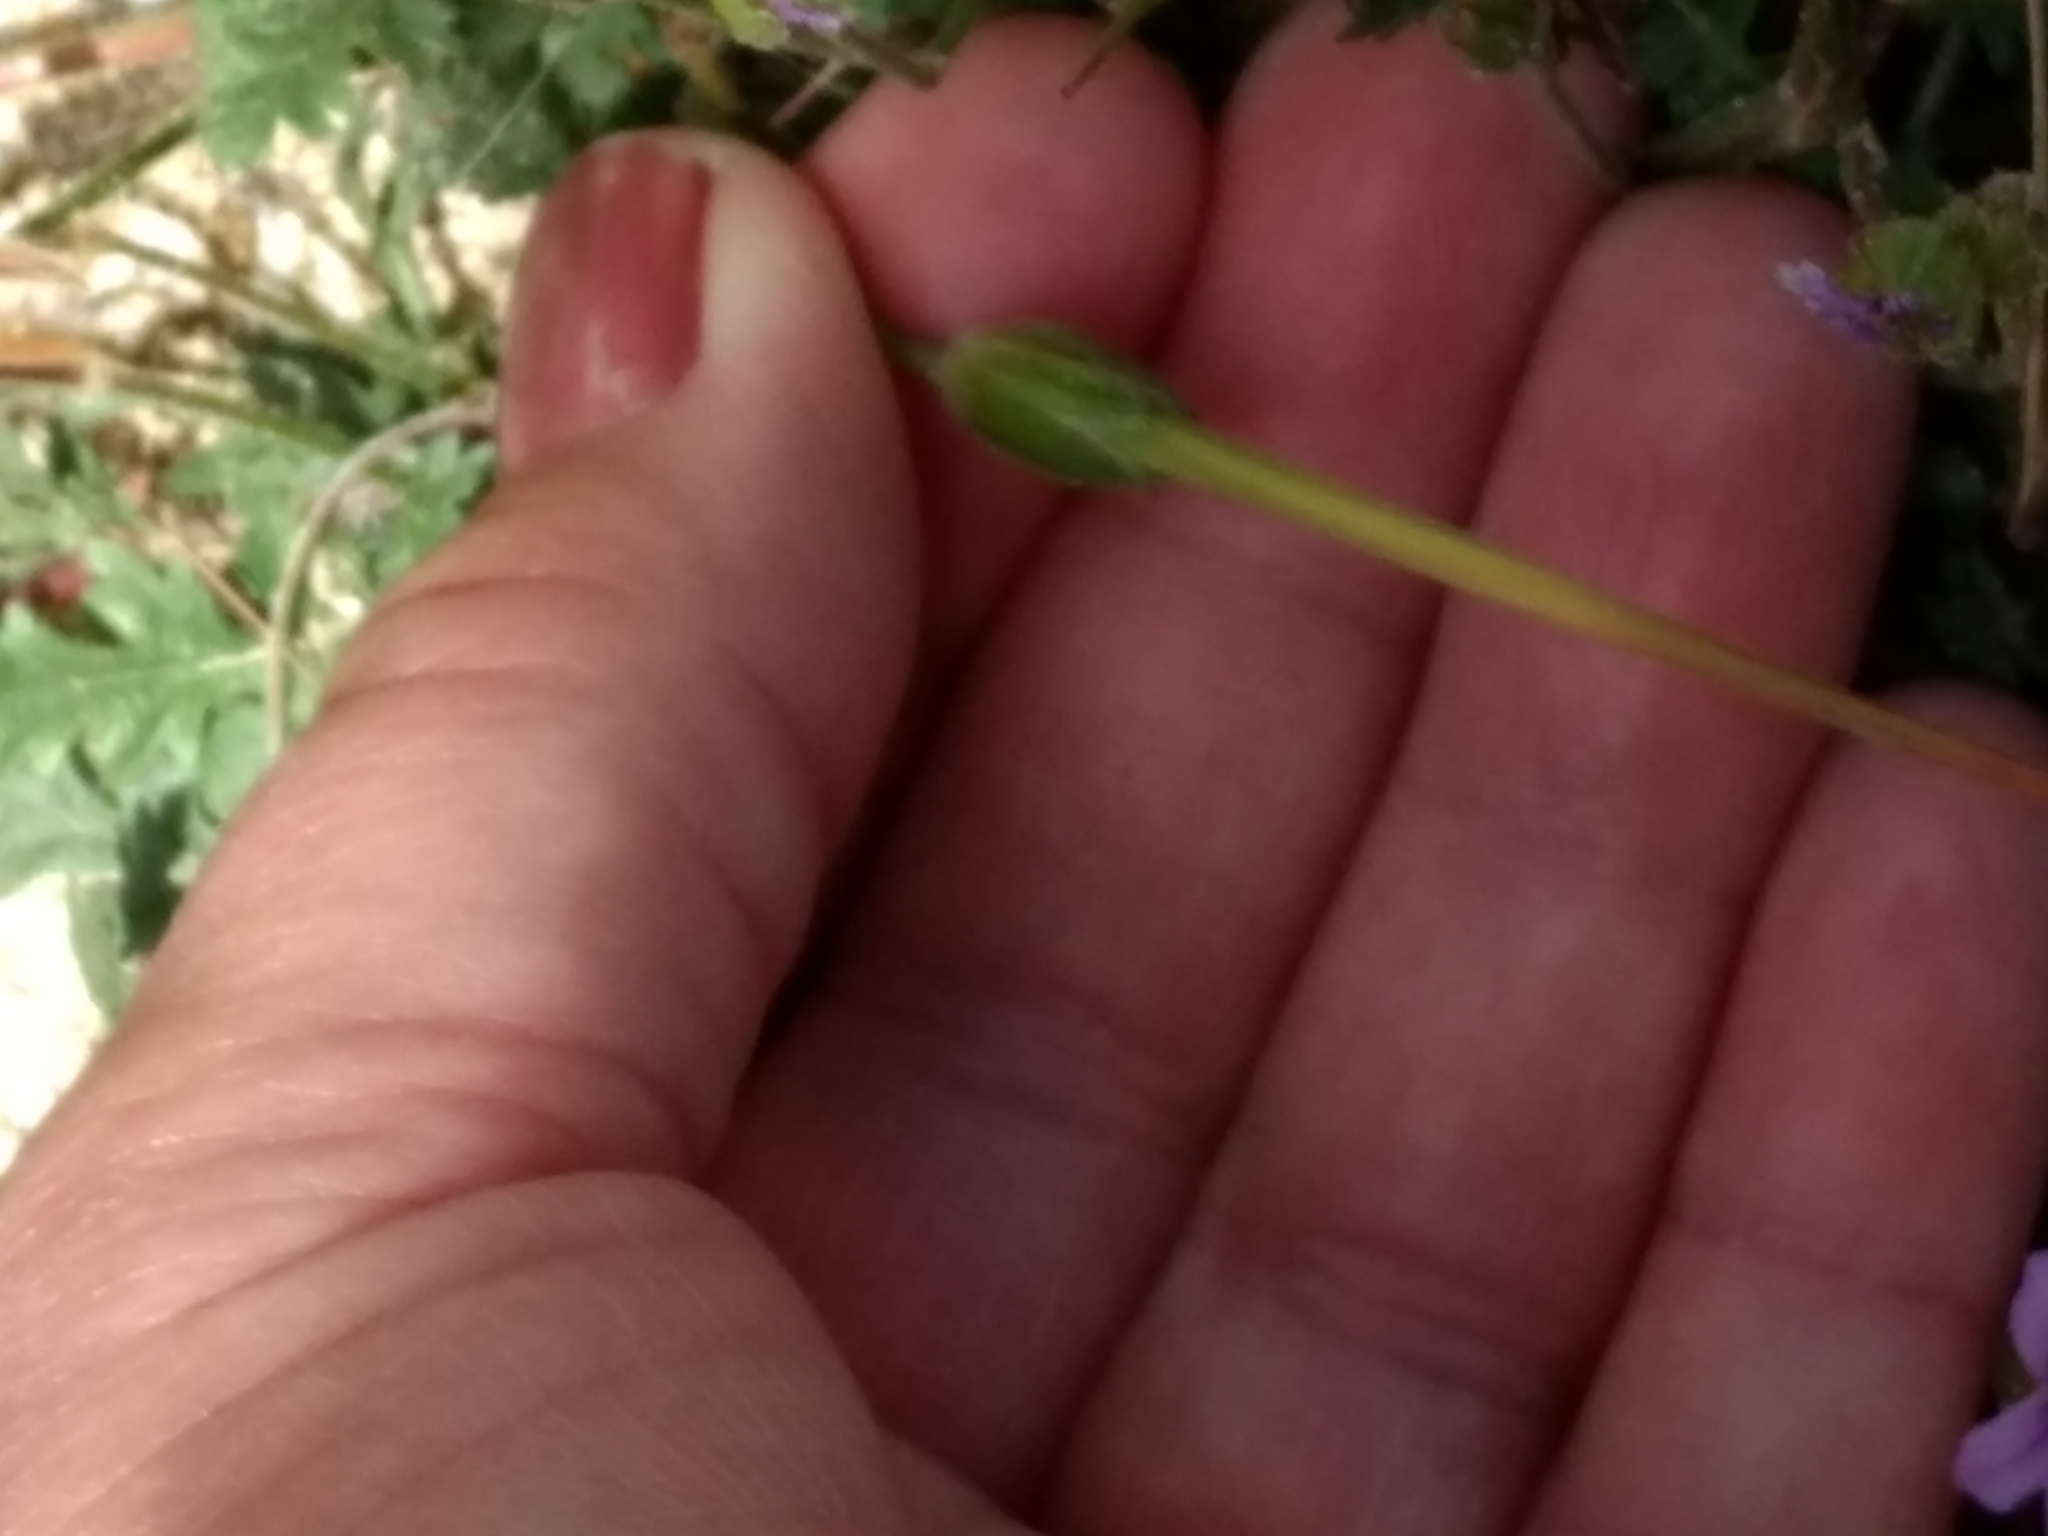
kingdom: Plantae
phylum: Tracheophyta
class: Magnoliopsida
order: Geraniales
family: Geraniaceae
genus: Erodium
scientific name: Erodium botrys
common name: Mediterranean stork's-bill
